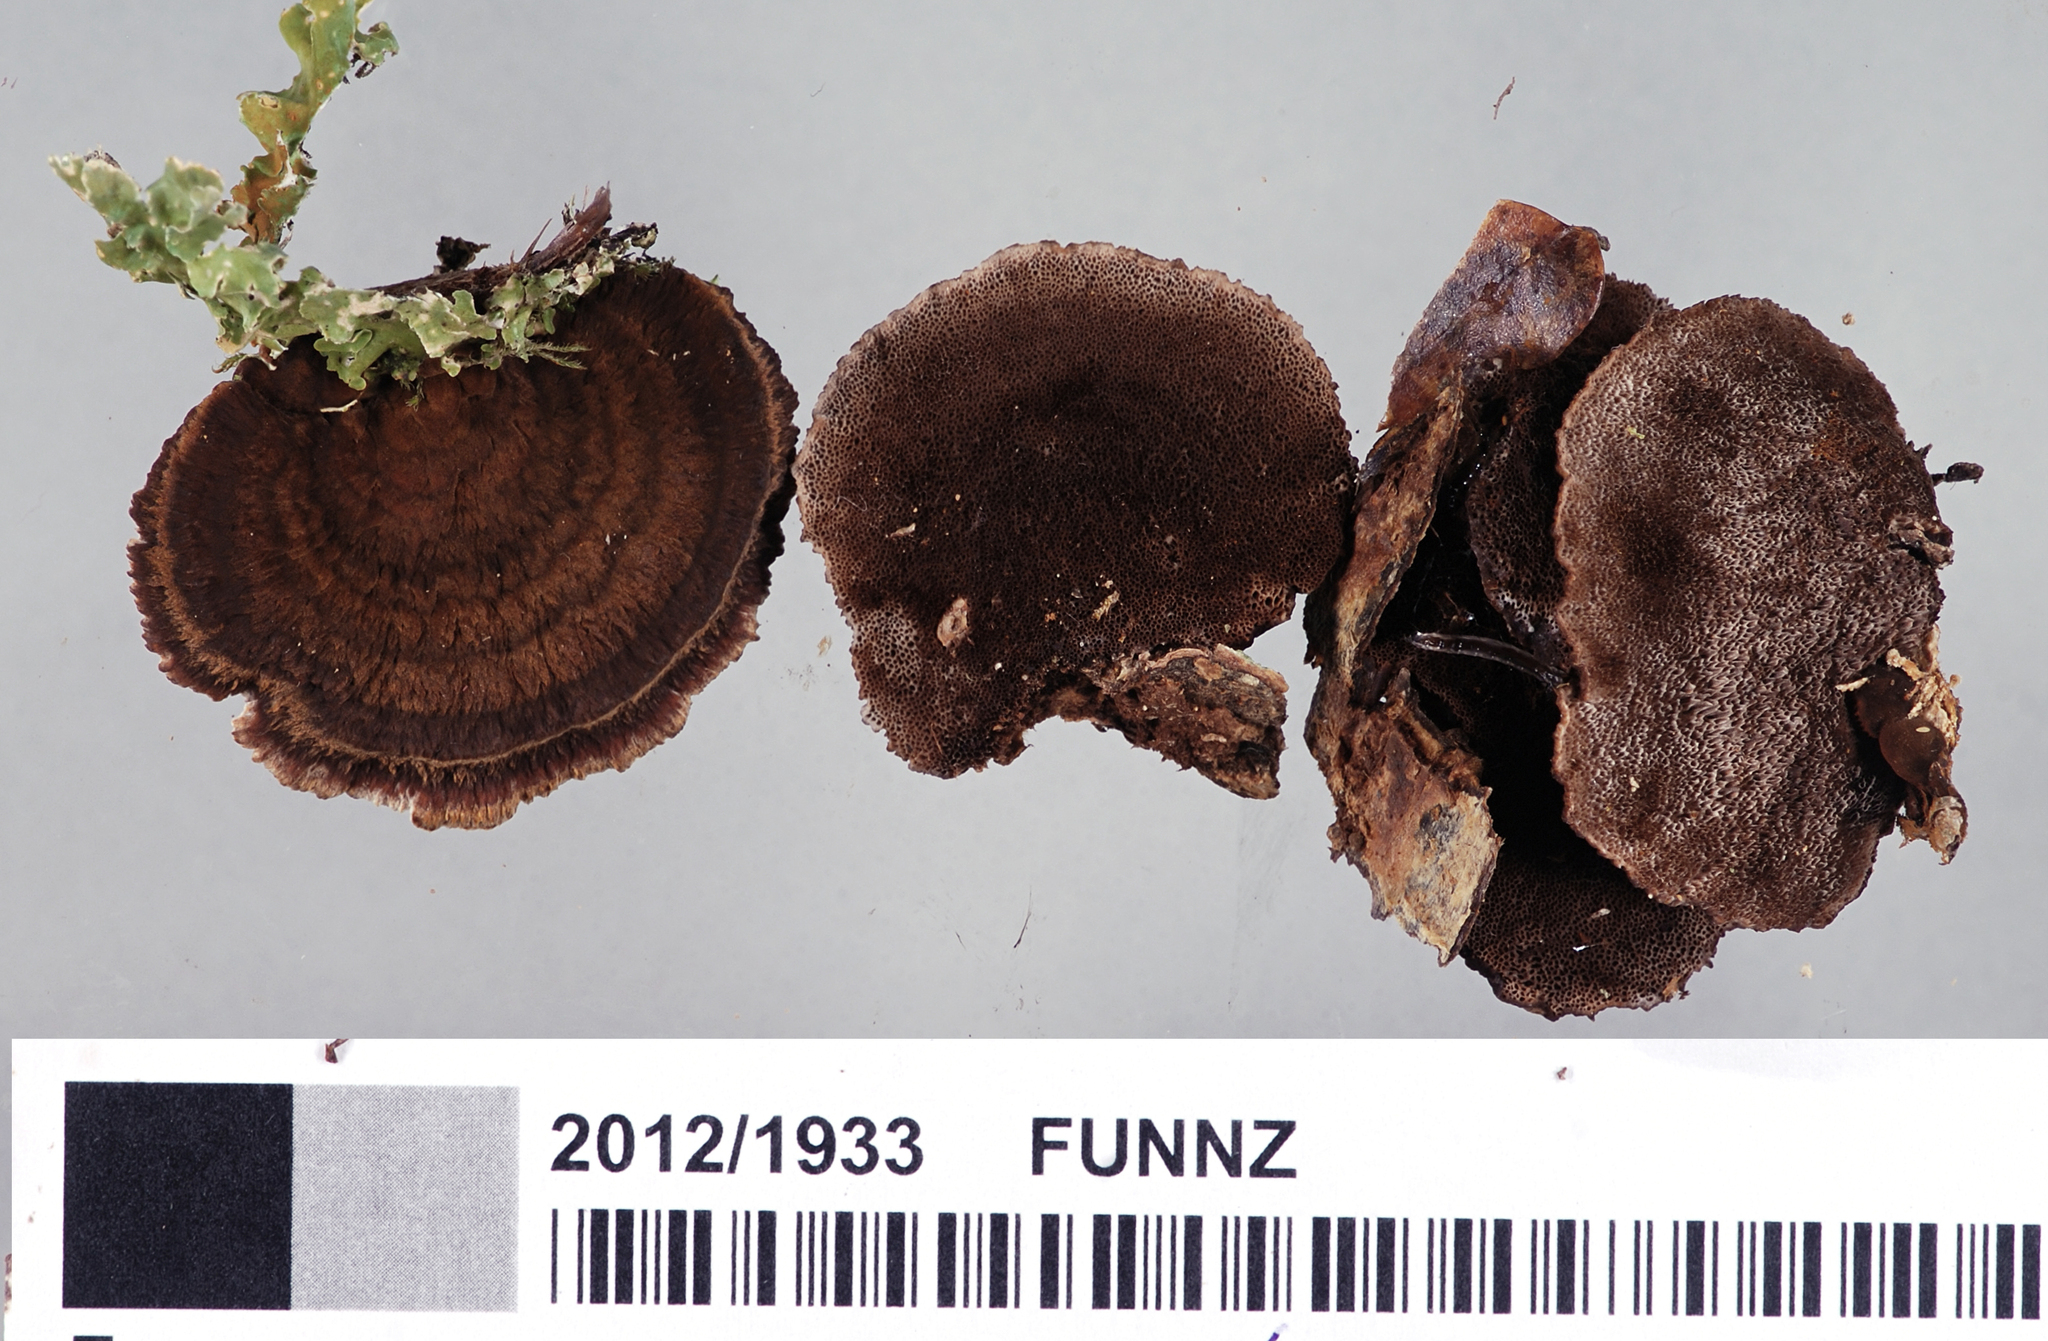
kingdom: Fungi
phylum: Basidiomycota
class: Agaricomycetes
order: Hymenochaetales
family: Hymenochaetaceae
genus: Nothonotus
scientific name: Nothonotus nothofagi
